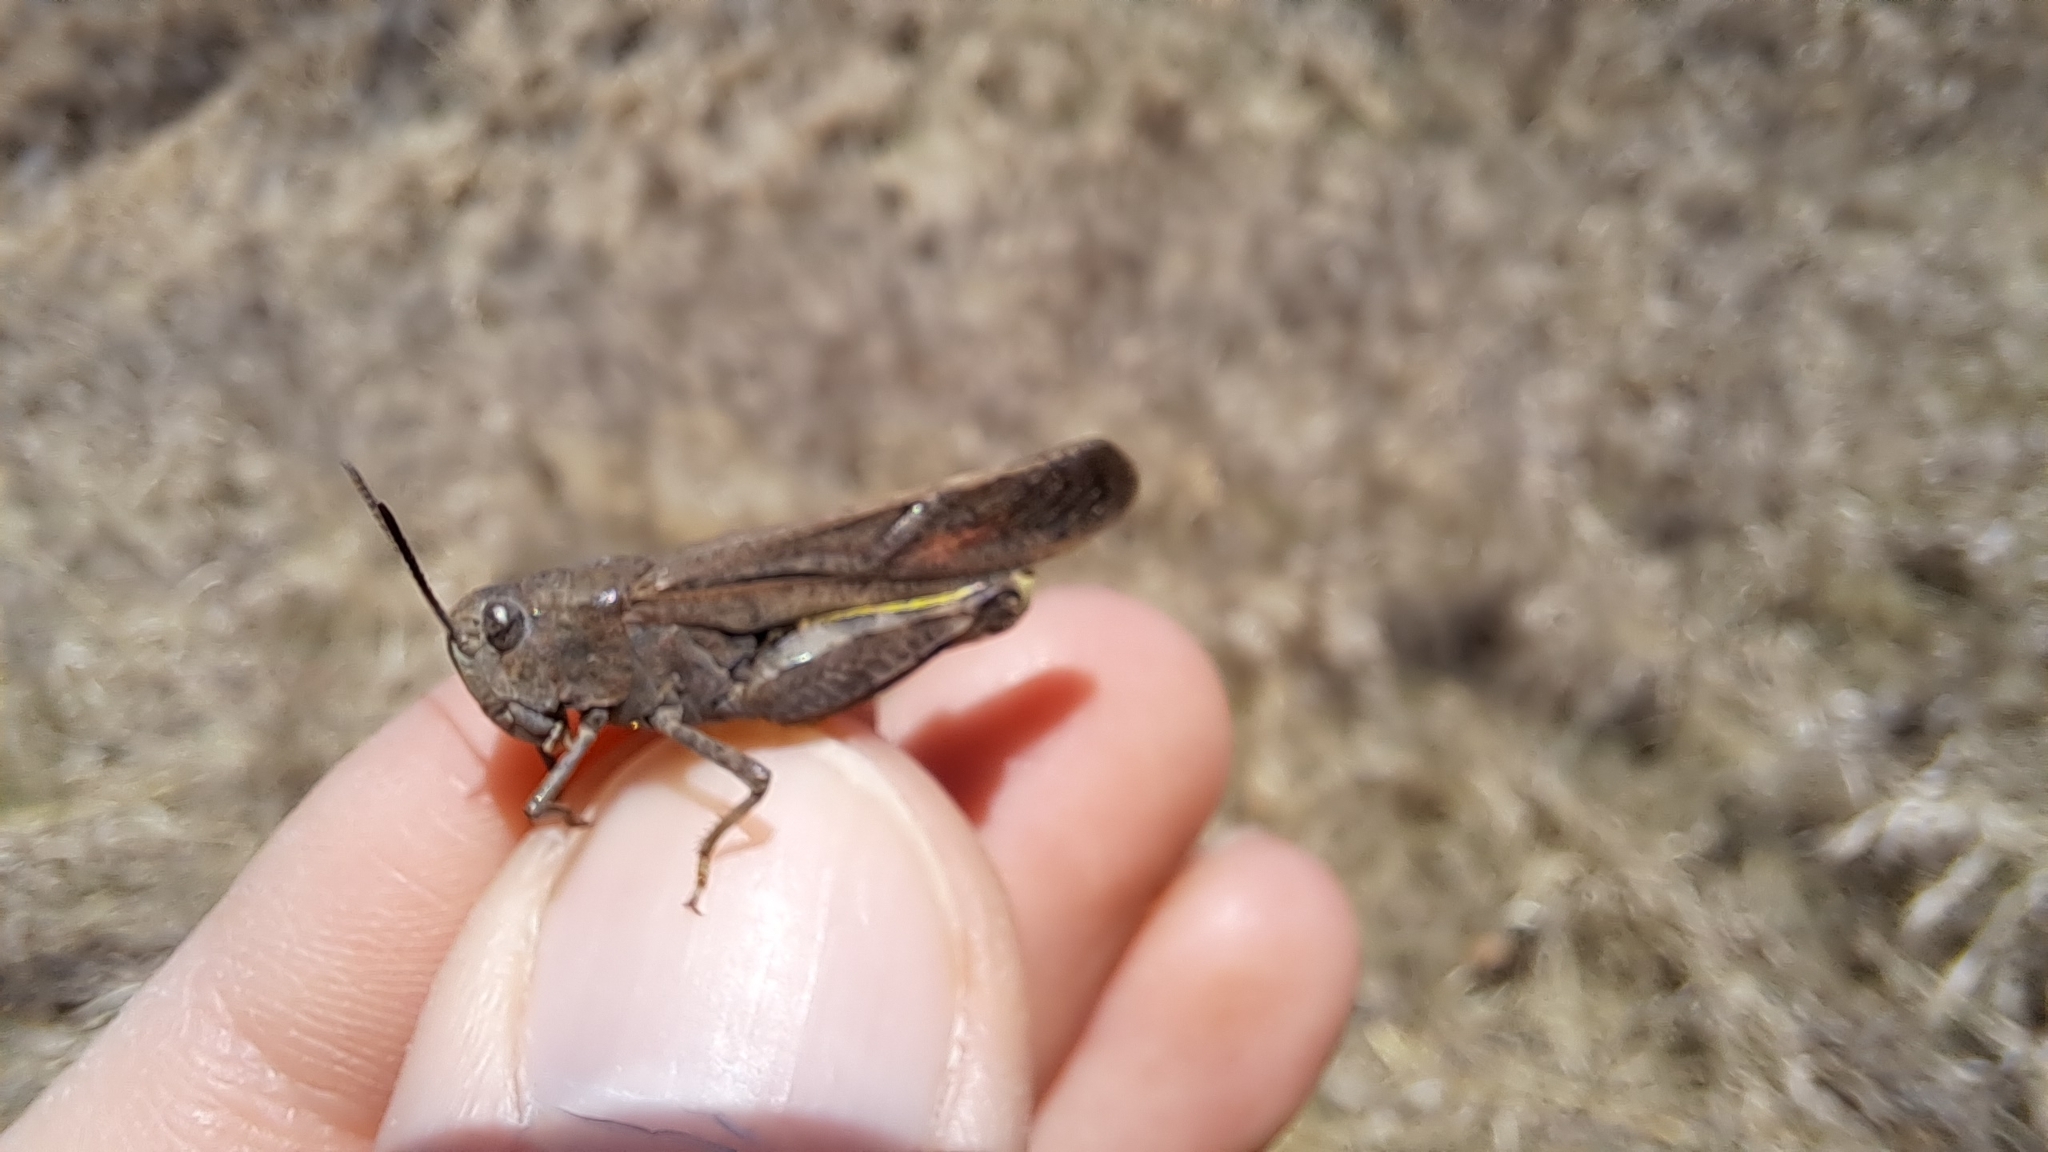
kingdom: Animalia
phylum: Arthropoda
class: Insecta
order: Orthoptera
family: Acrididae
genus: Arphia
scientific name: Arphia conspersa
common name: Speckle-winged rangeland grasshopper
